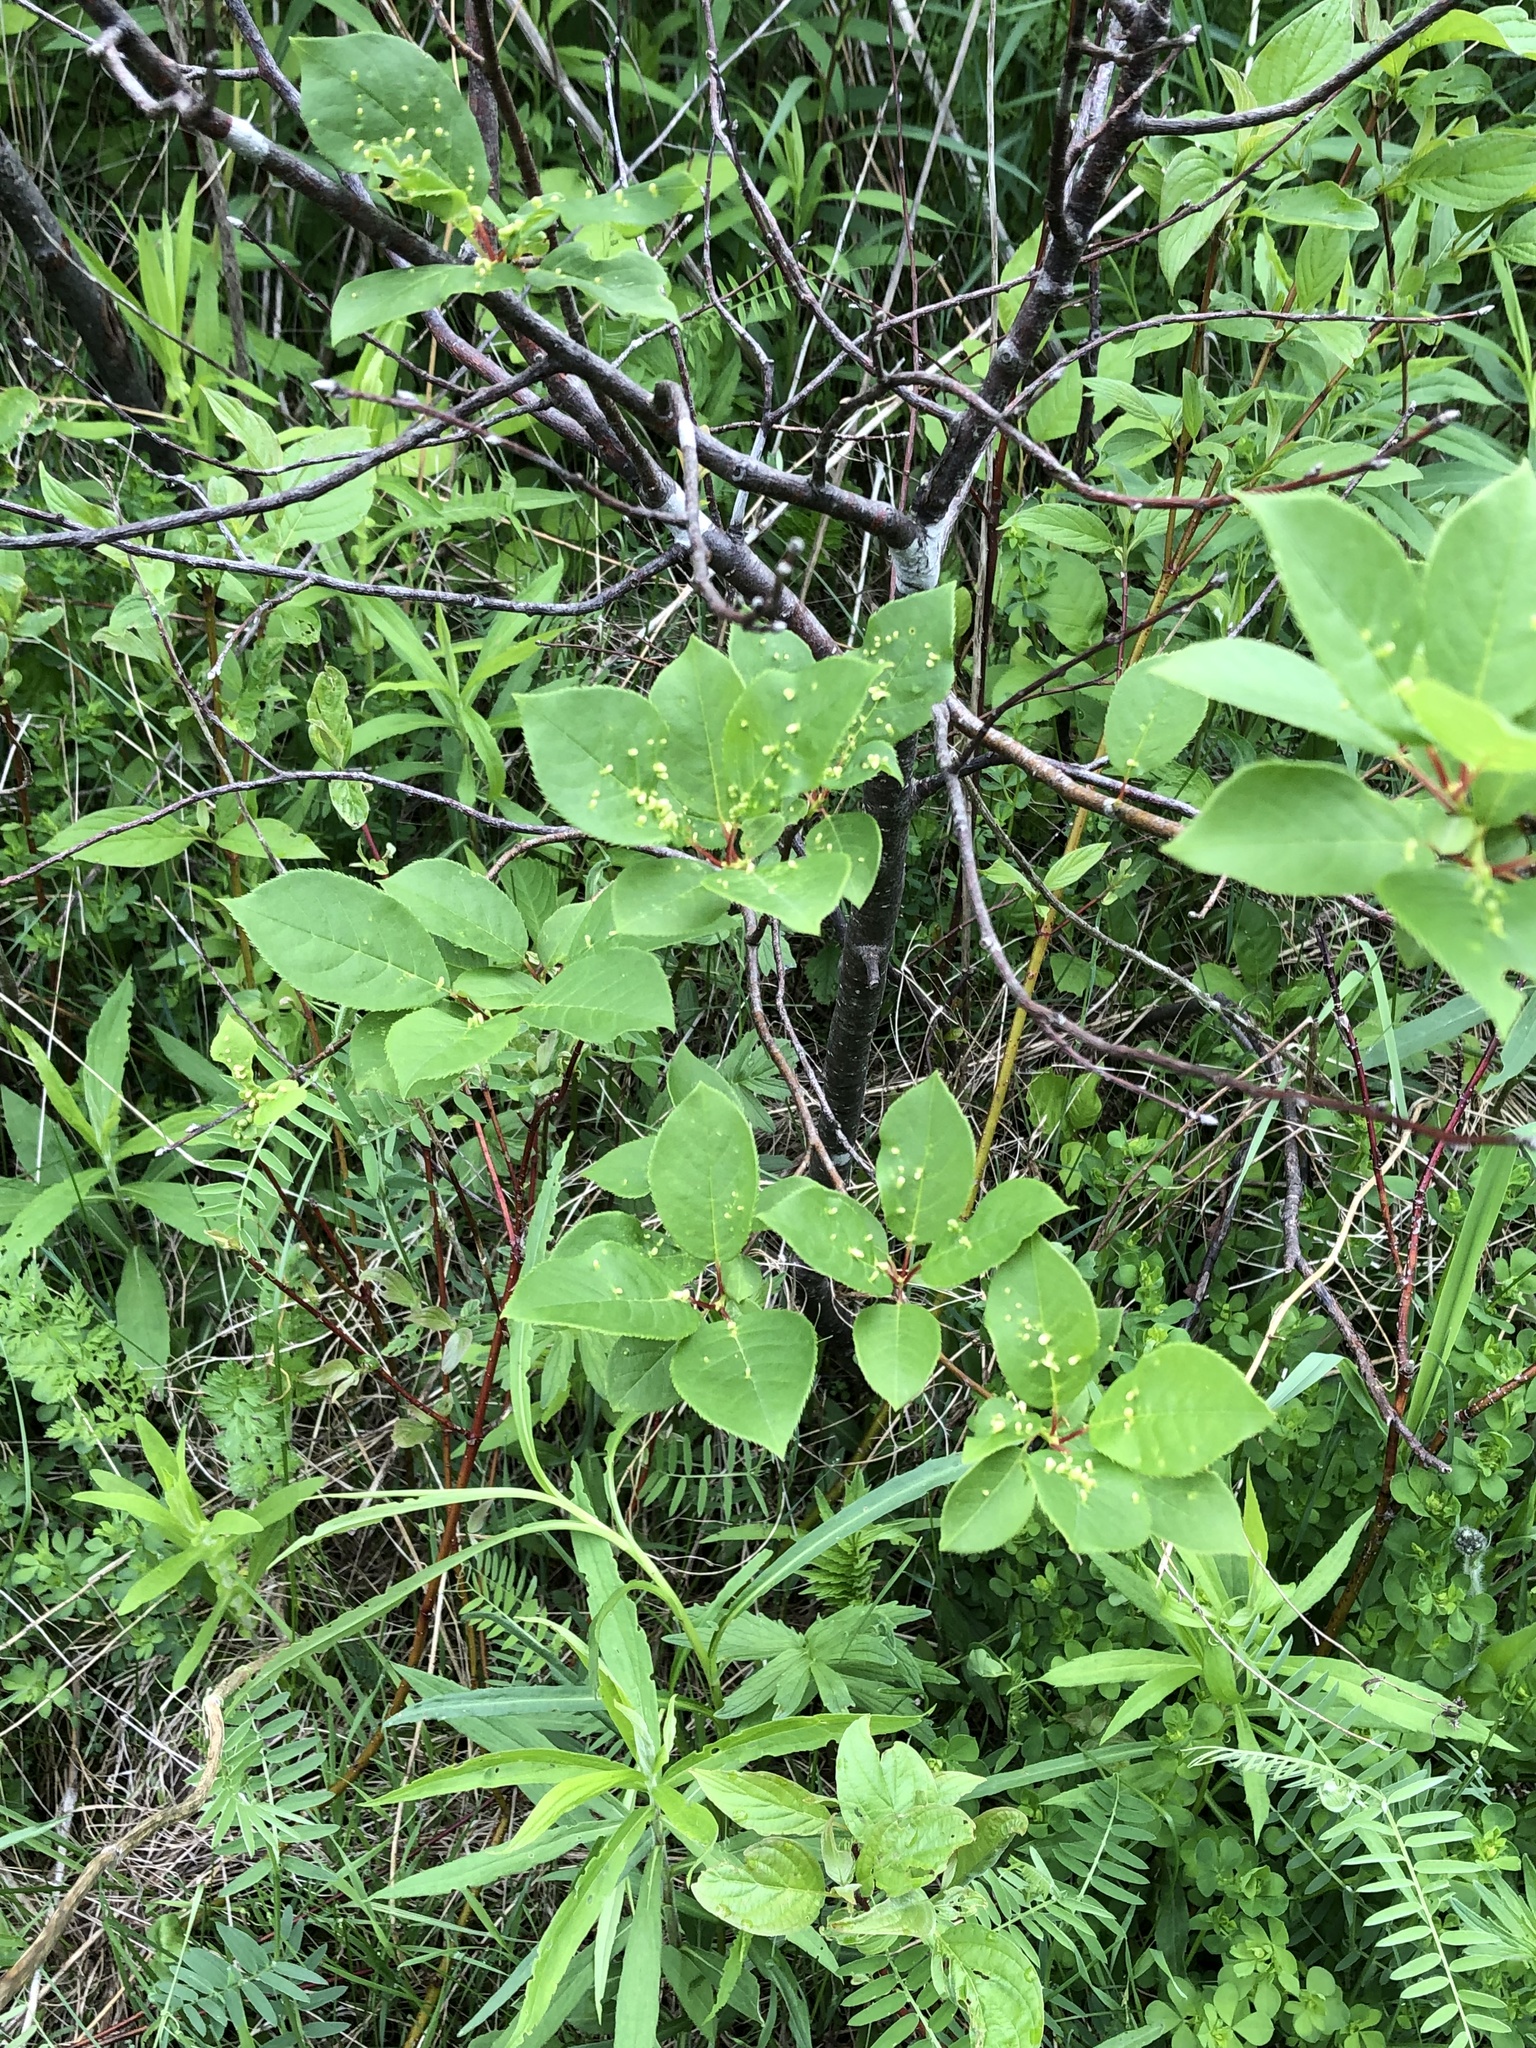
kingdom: Plantae
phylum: Tracheophyta
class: Magnoliopsida
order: Rosales
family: Rosaceae
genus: Prunus
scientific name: Prunus virginiana
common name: Chokecherry
